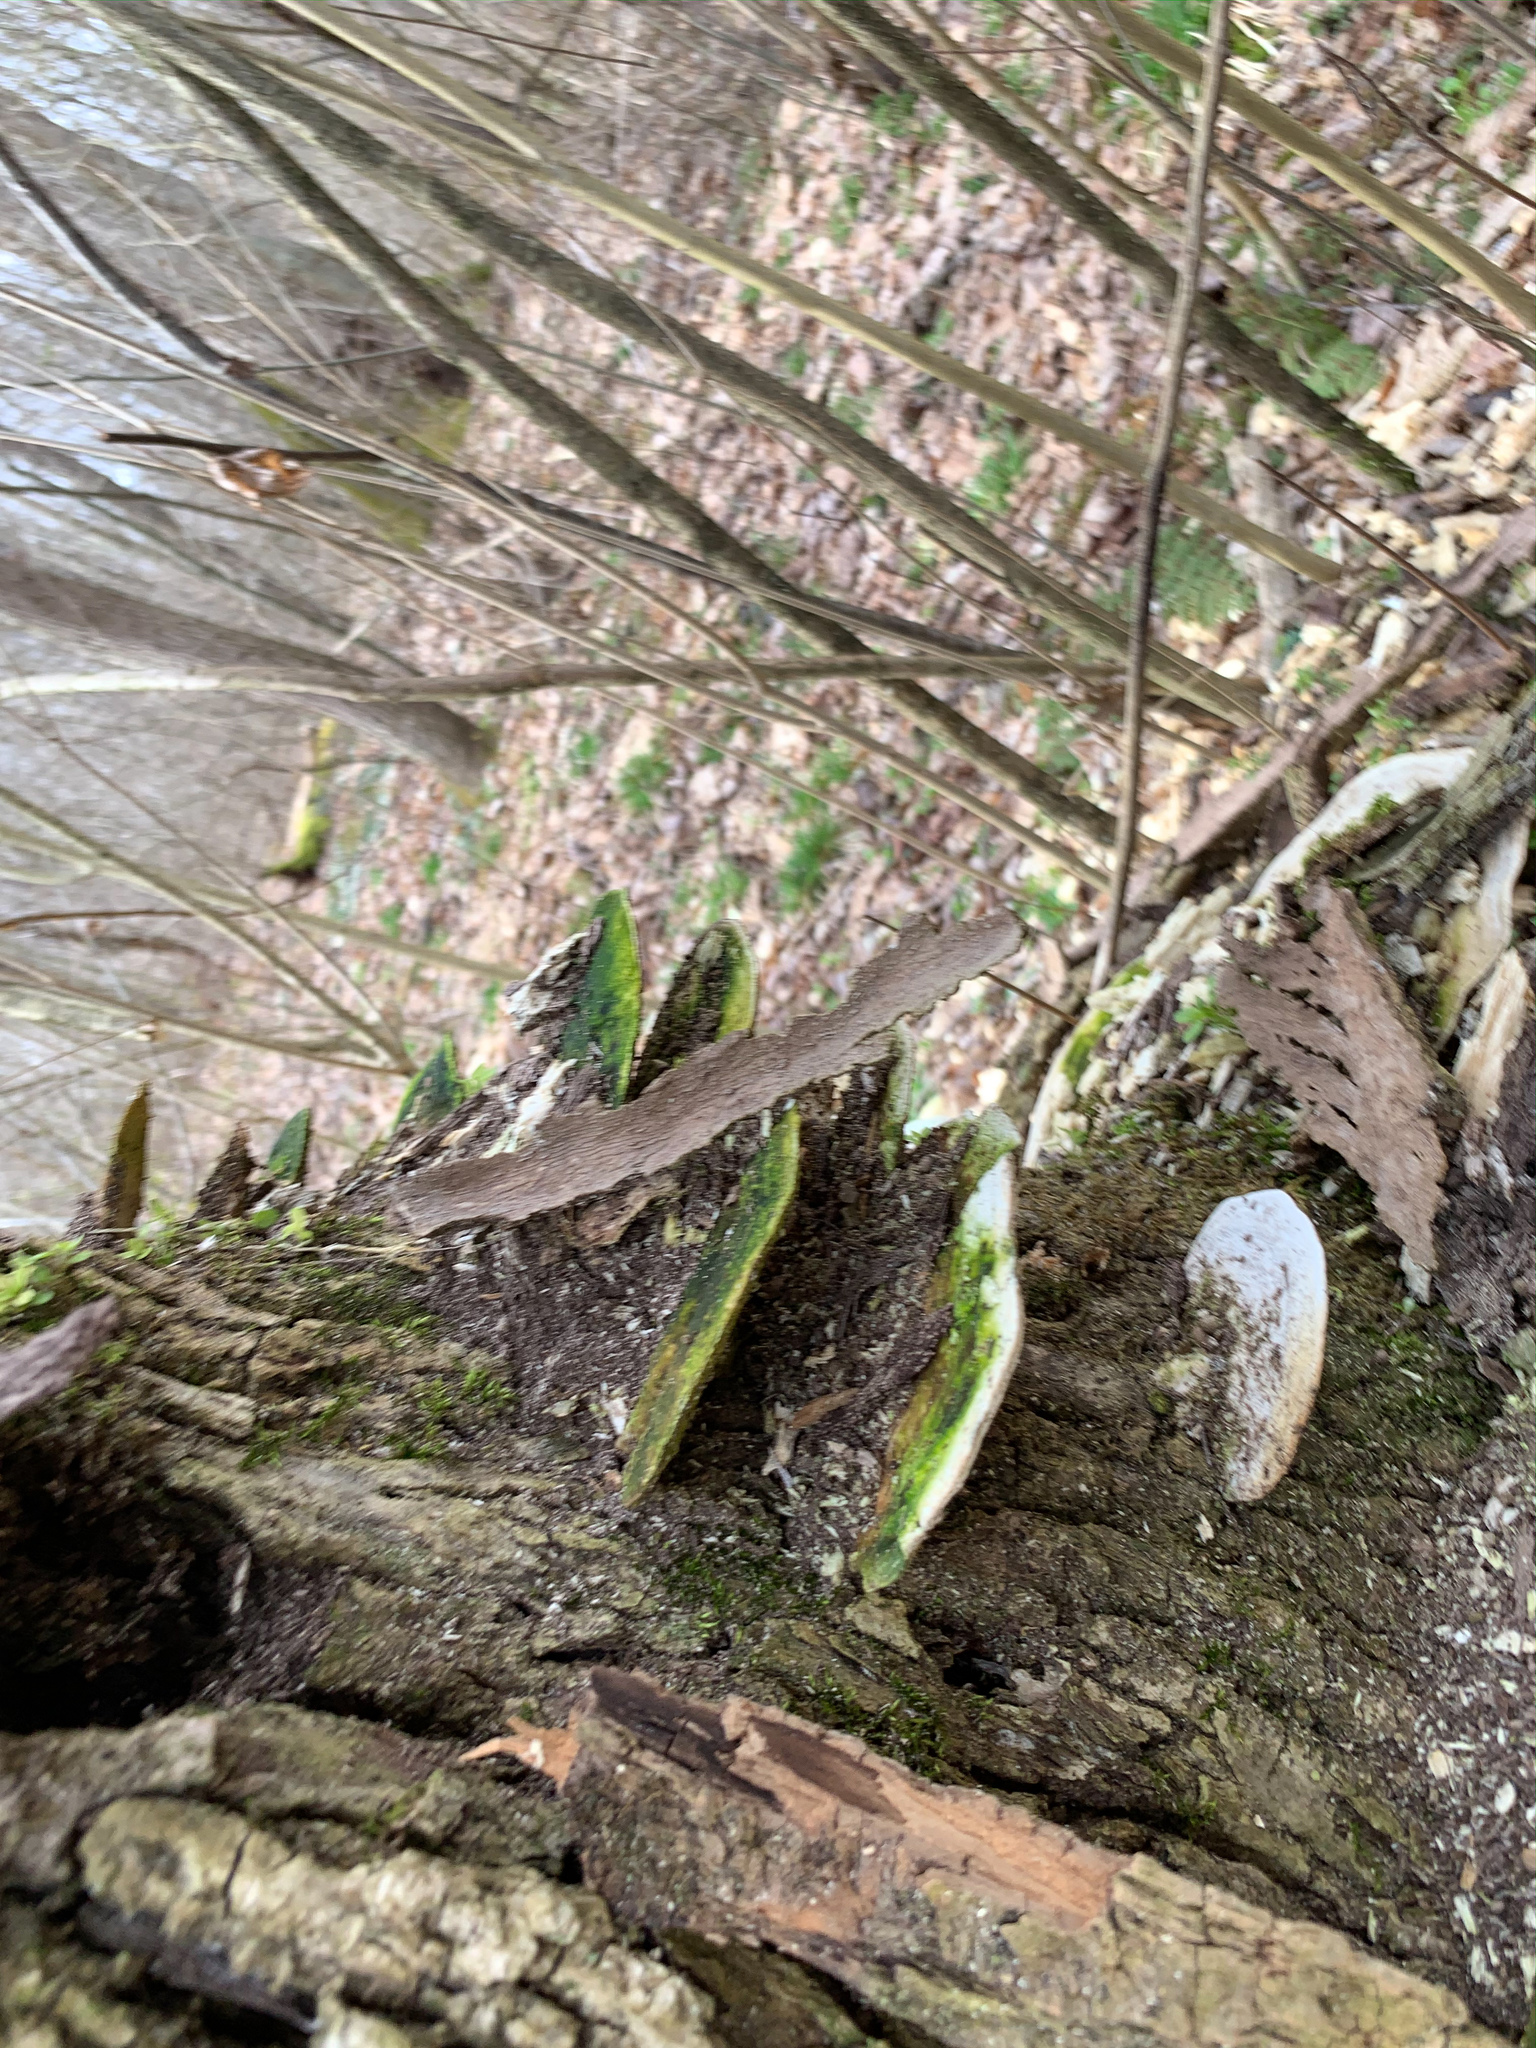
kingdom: Fungi
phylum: Basidiomycota
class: Agaricomycetes
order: Polyporales
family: Polyporaceae
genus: Trametes
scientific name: Trametes gibbosa
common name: Lumpy bracket
